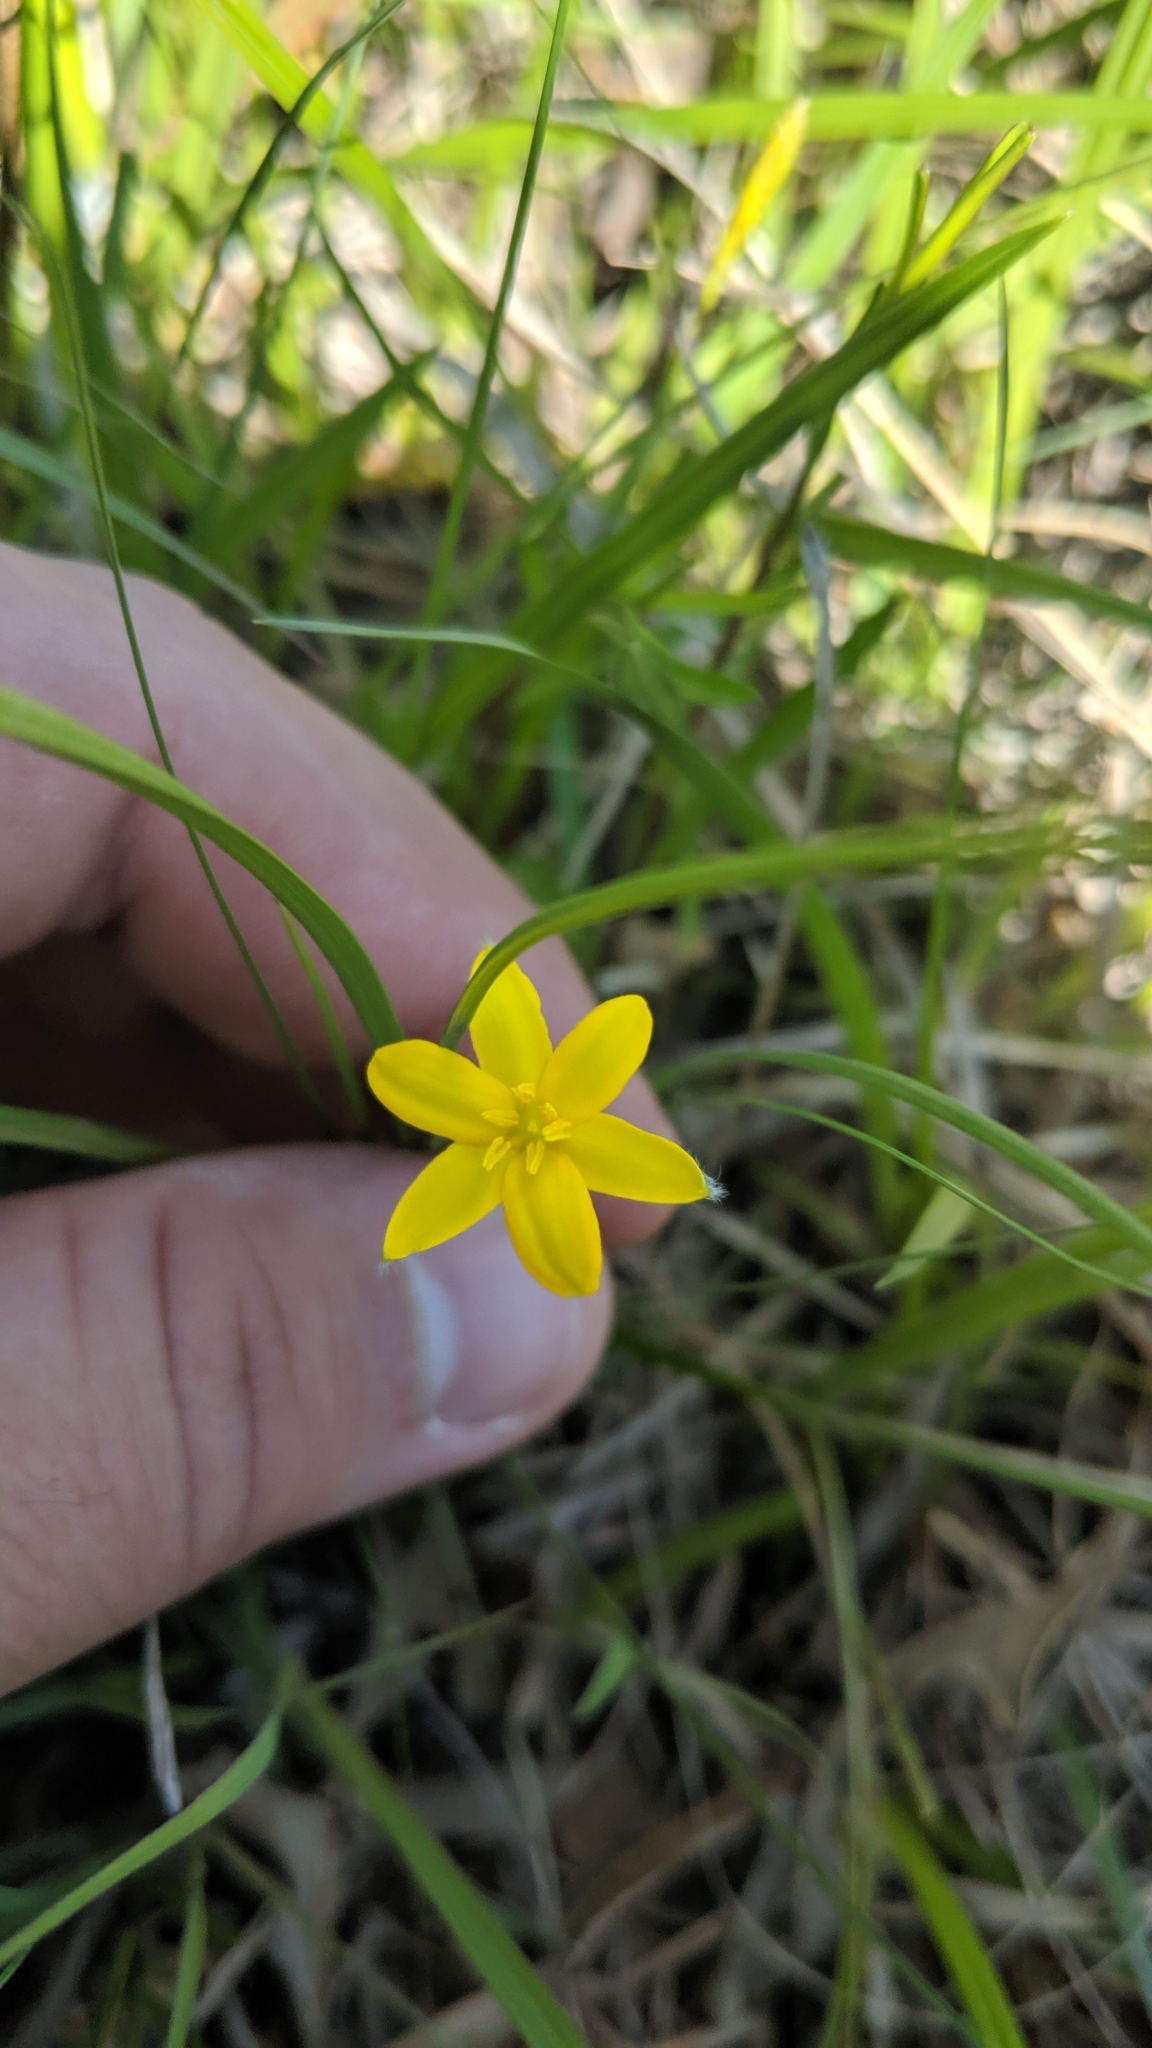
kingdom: Plantae
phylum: Tracheophyta
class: Liliopsida
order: Asparagales
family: Hypoxidaceae
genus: Hypoxis
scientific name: Hypoxis hirsuta
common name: Common goldstar
